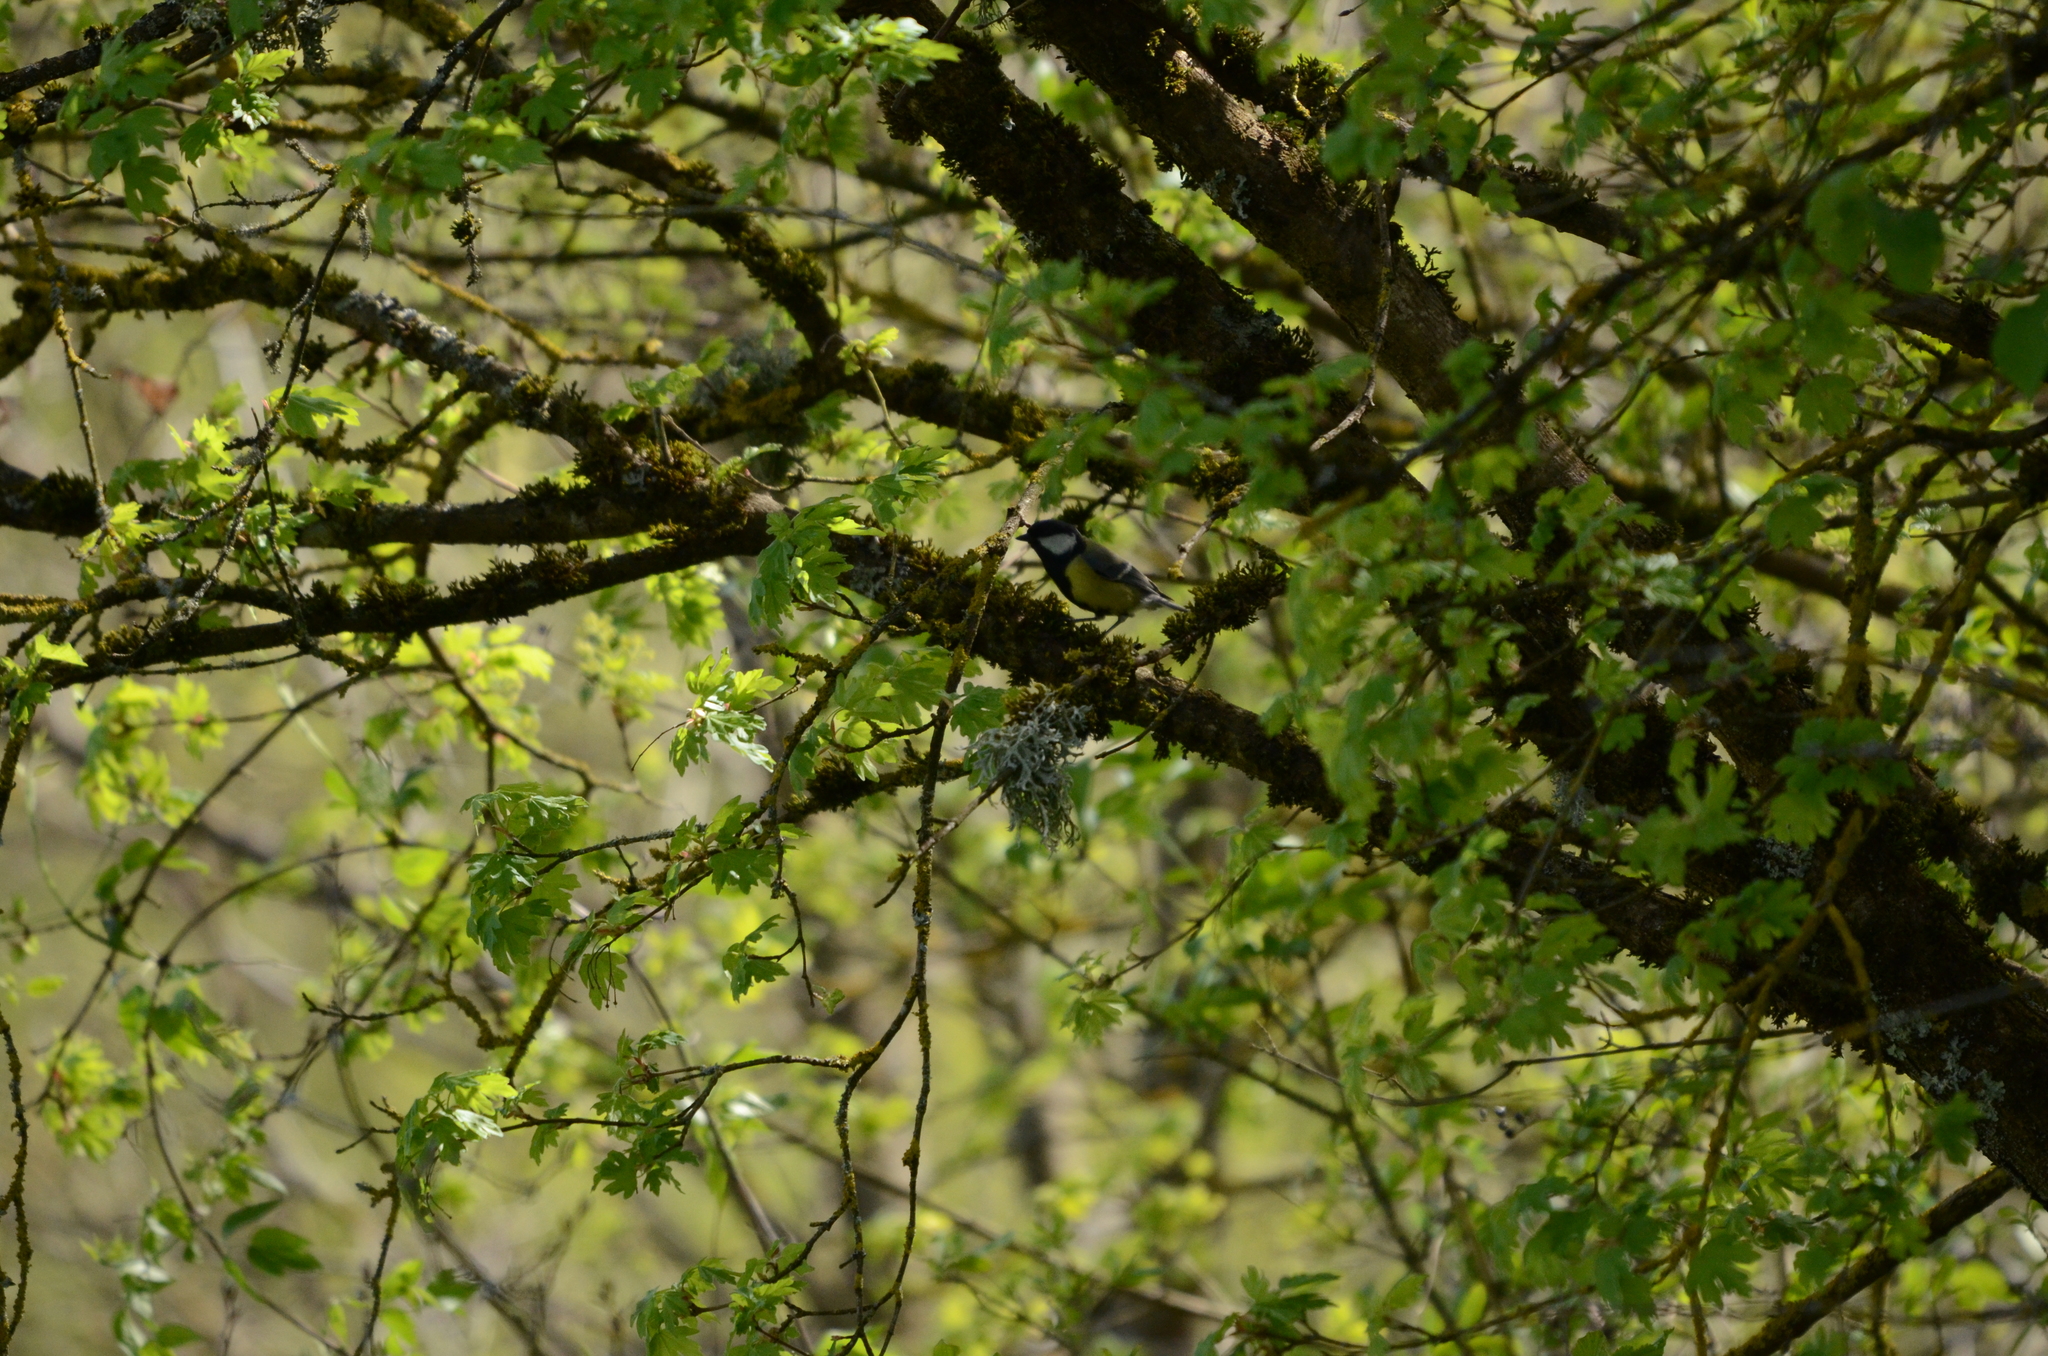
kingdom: Animalia
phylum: Chordata
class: Aves
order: Passeriformes
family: Paridae
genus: Parus
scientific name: Parus major
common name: Great tit
